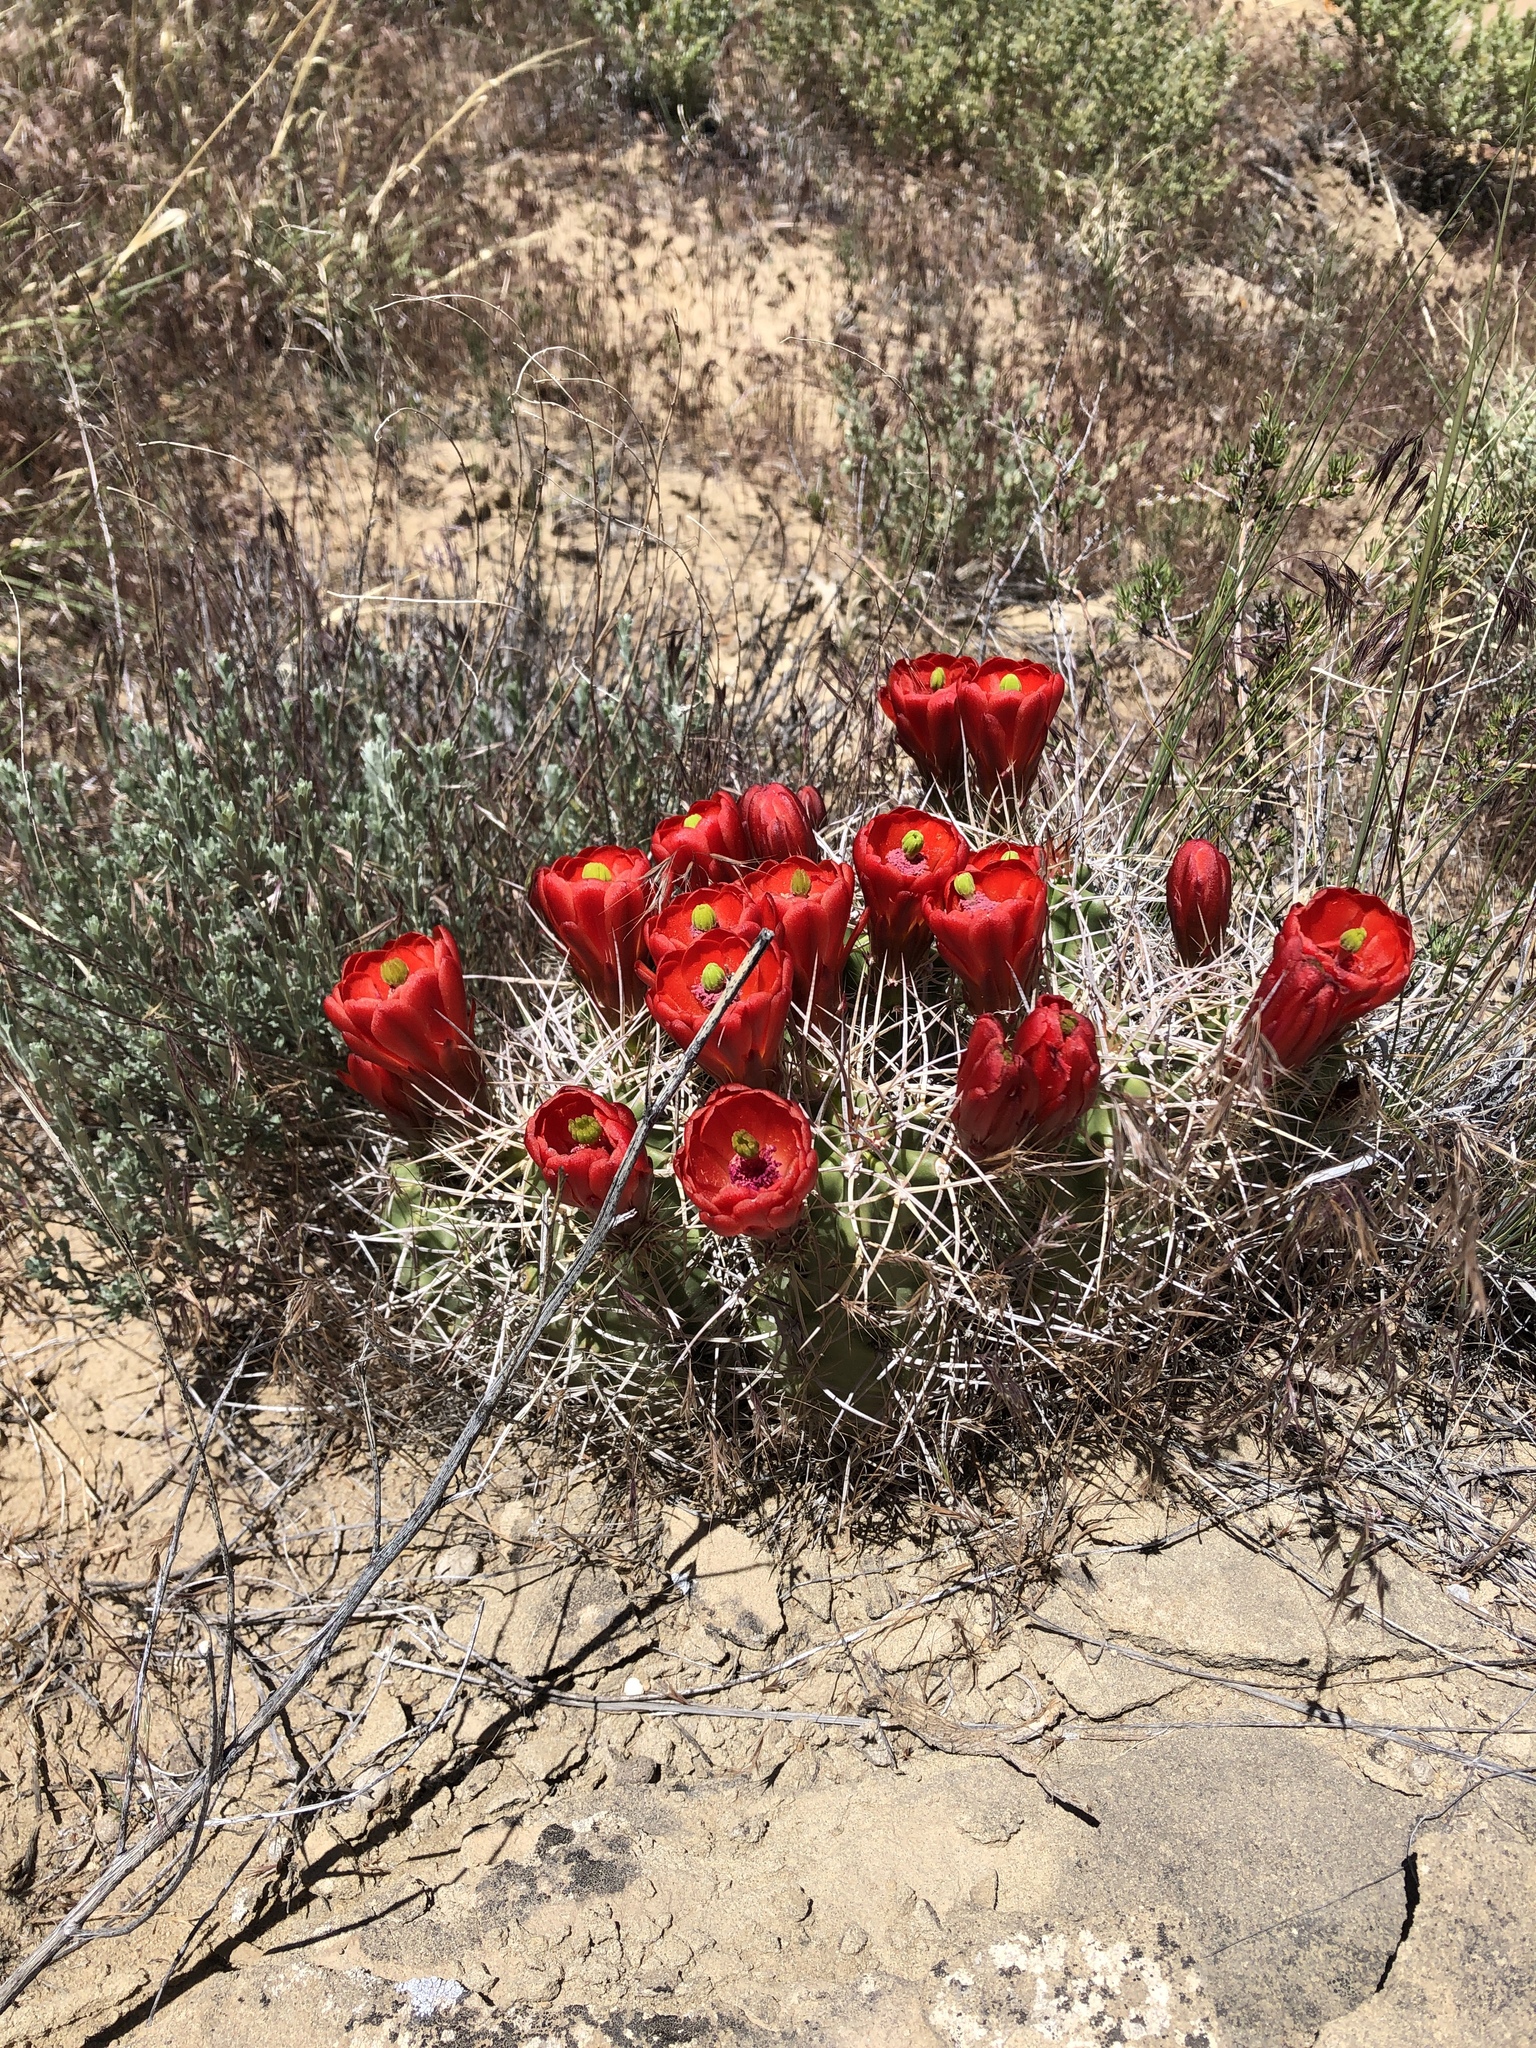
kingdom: Plantae
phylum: Tracheophyta
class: Magnoliopsida
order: Caryophyllales
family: Cactaceae
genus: Echinocereus
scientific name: Echinocereus triglochidiatus
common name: Claretcup hedgehog
